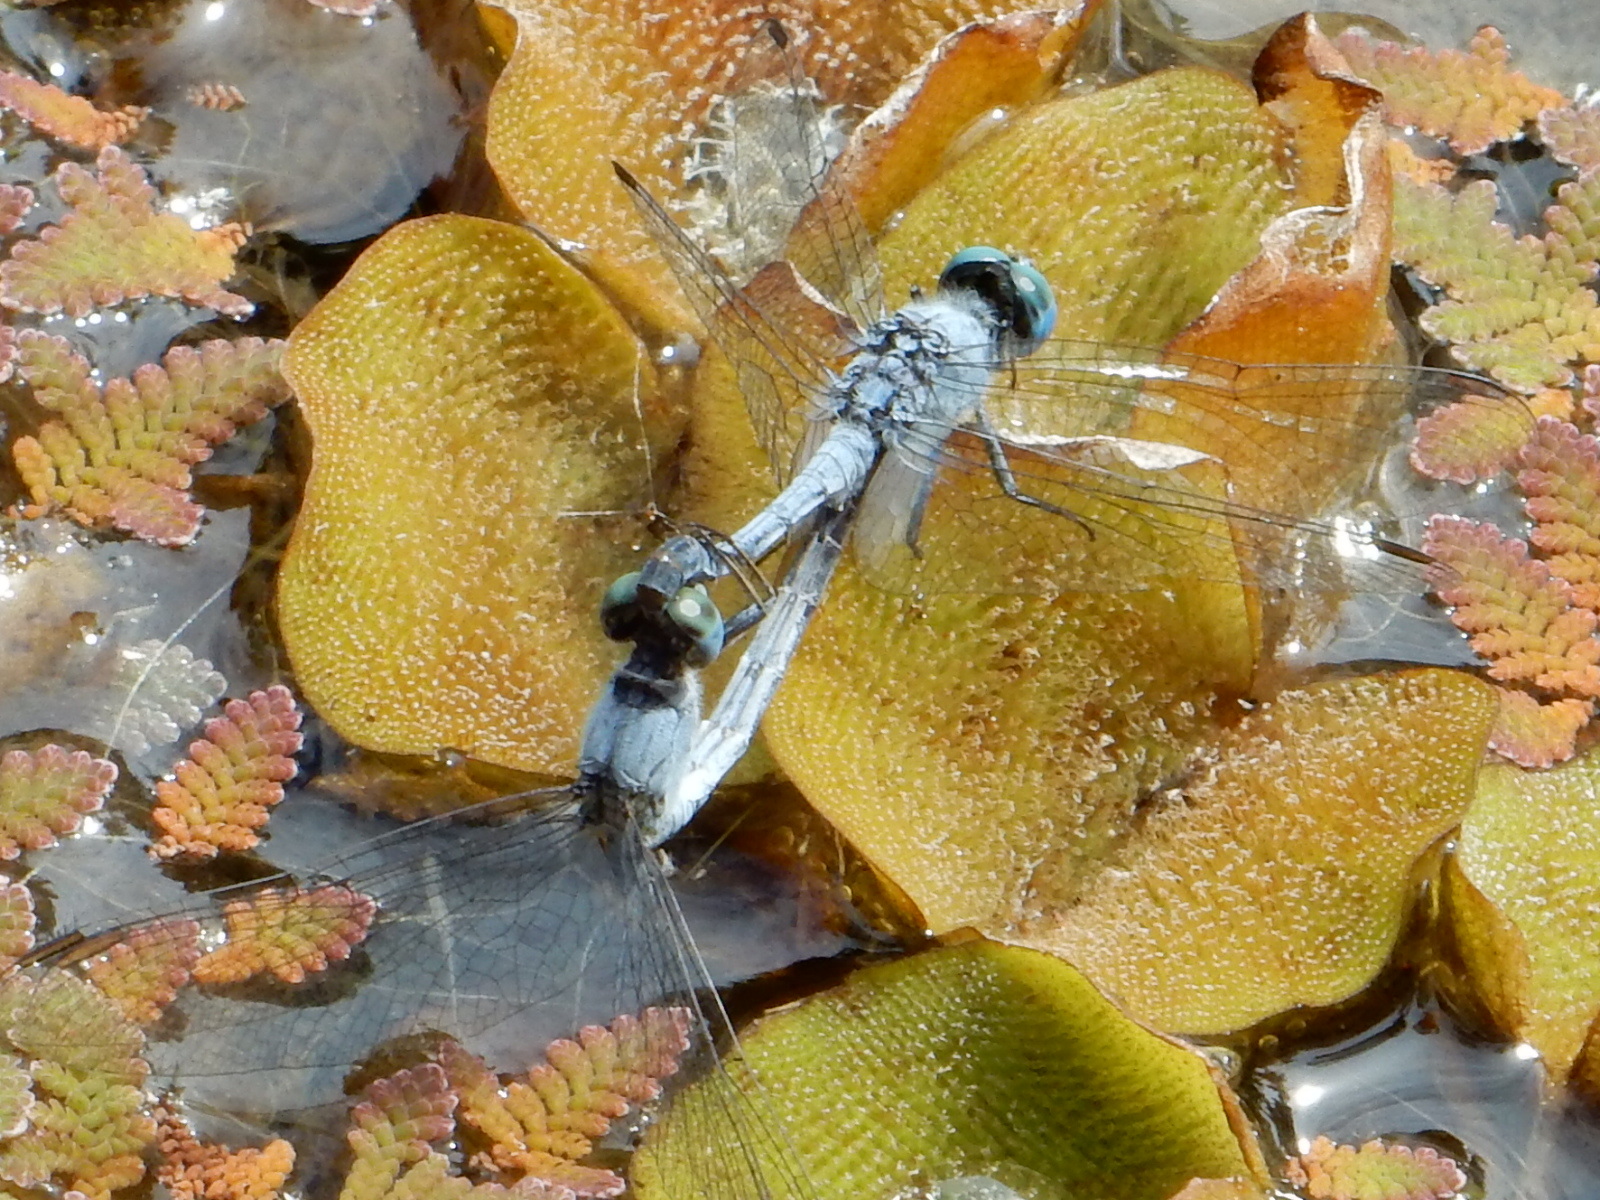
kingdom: Animalia
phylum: Arthropoda
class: Insecta
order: Odonata
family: Libellulidae
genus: Diplacodes
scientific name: Diplacodes trivialis
